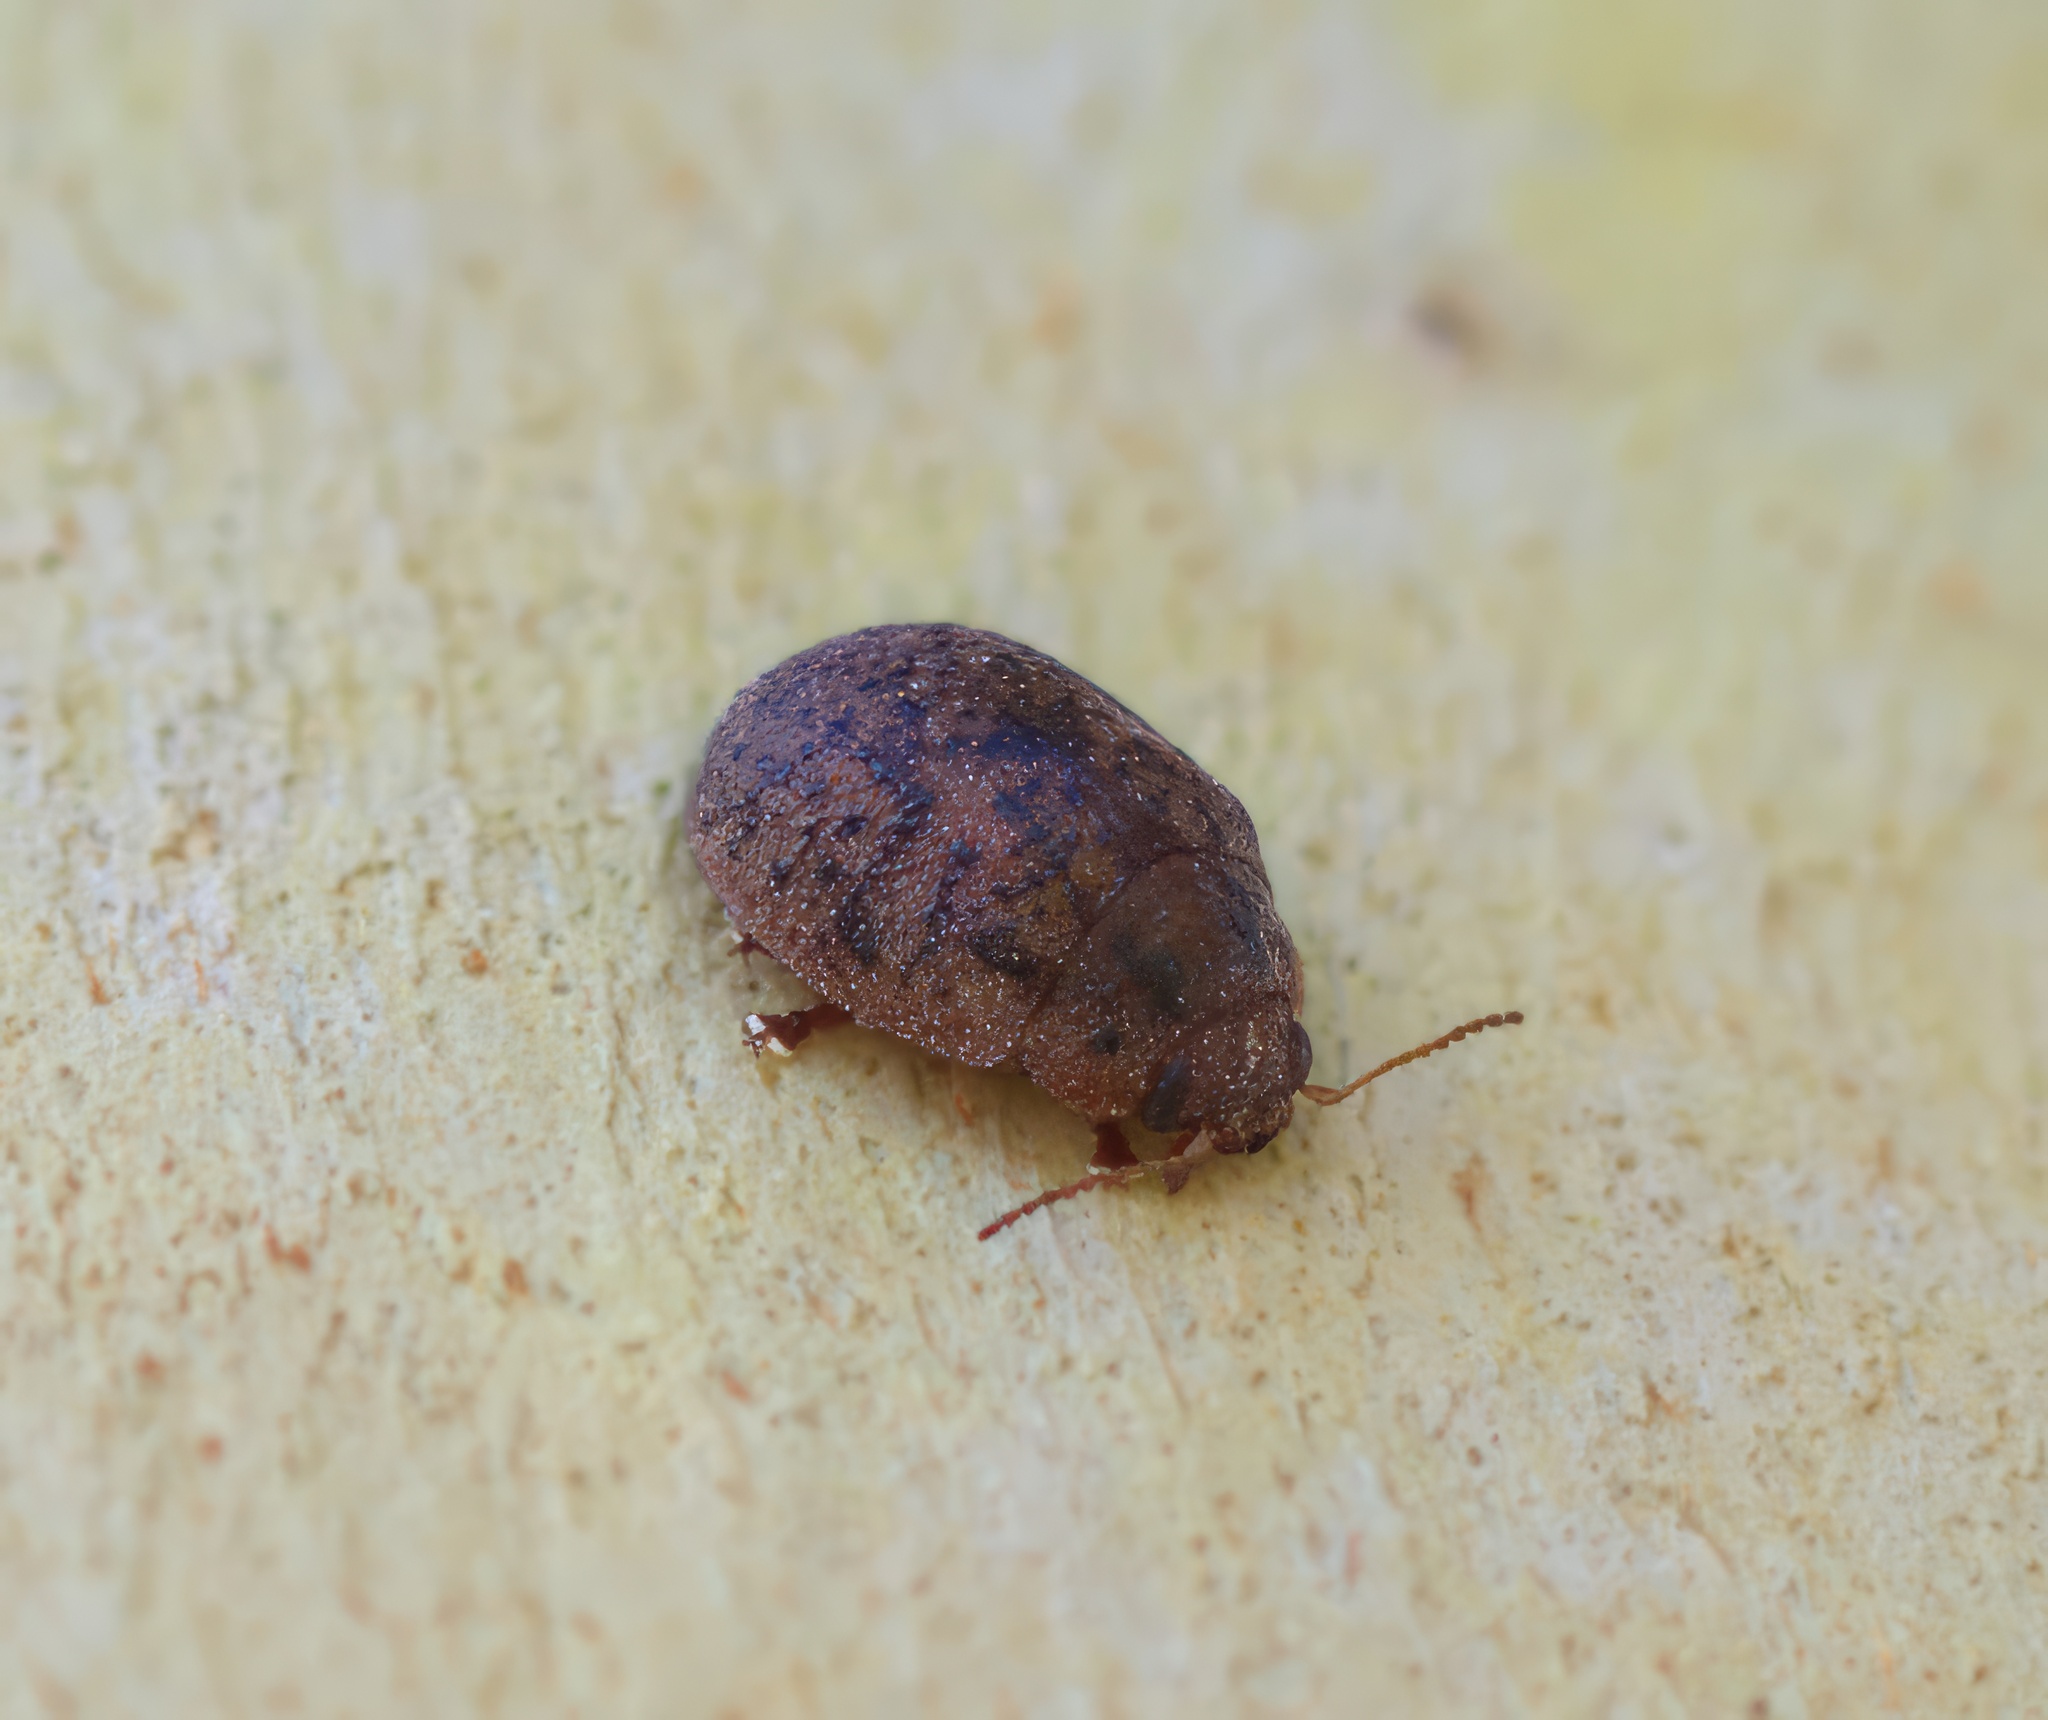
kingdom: Animalia
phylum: Arthropoda
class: Insecta
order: Coleoptera
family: Chrysomelidae
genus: Trachymela
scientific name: Trachymela sloanei
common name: Australian tortoise beetle
